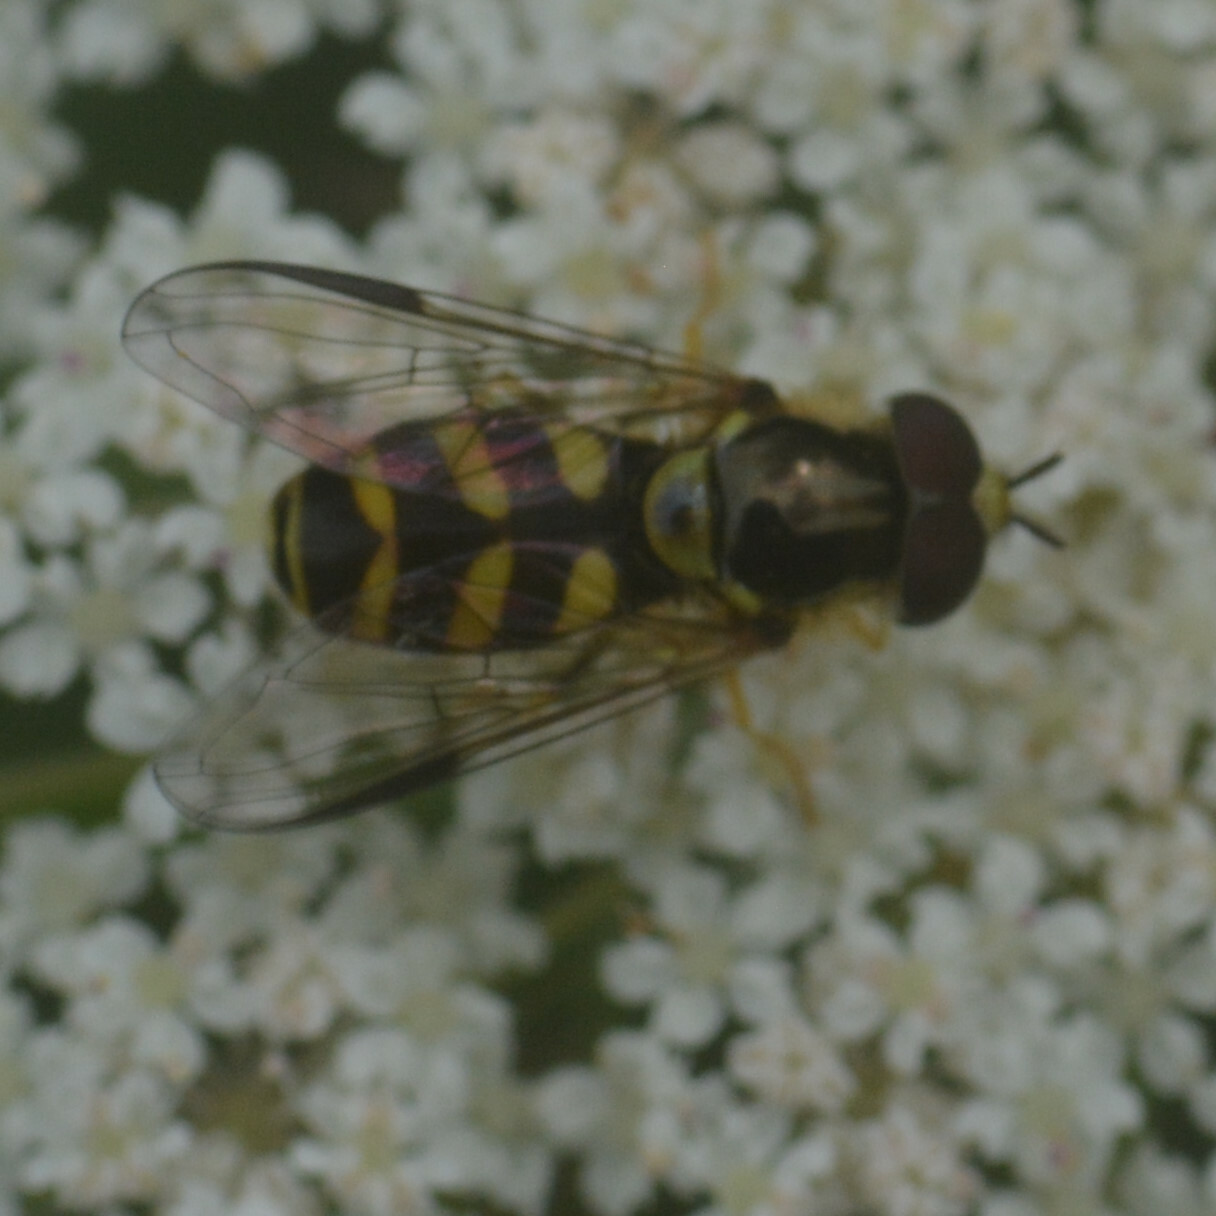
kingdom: Animalia
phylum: Arthropoda
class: Insecta
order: Diptera
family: Syrphidae
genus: Dasysyrphus
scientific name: Dasysyrphus albostriatus
